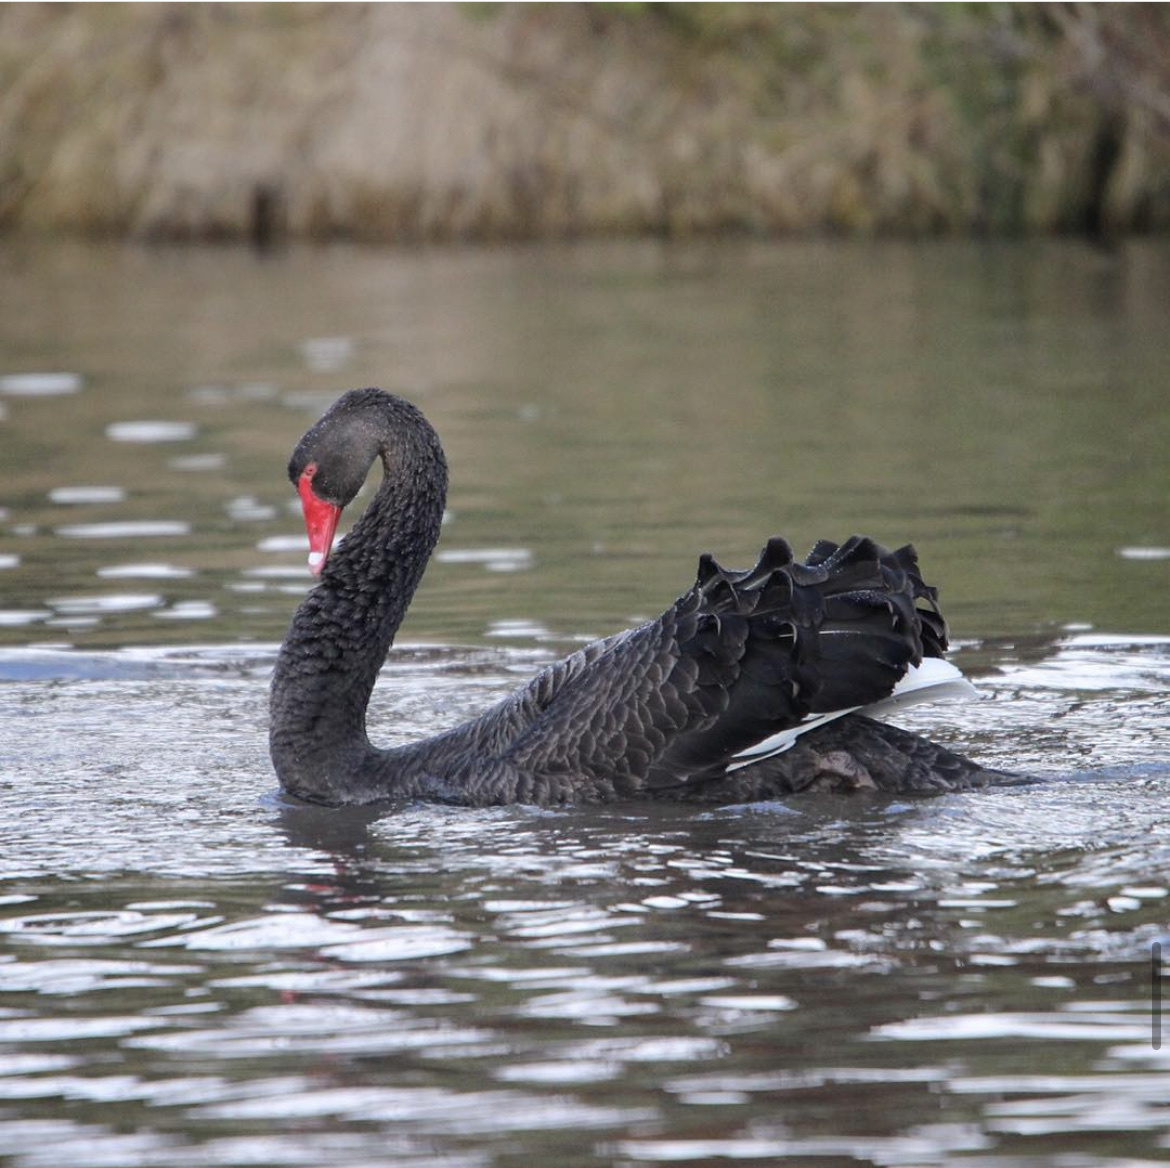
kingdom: Animalia
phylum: Chordata
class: Aves
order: Anseriformes
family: Anatidae
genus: Cygnus
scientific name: Cygnus atratus
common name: Black swan
